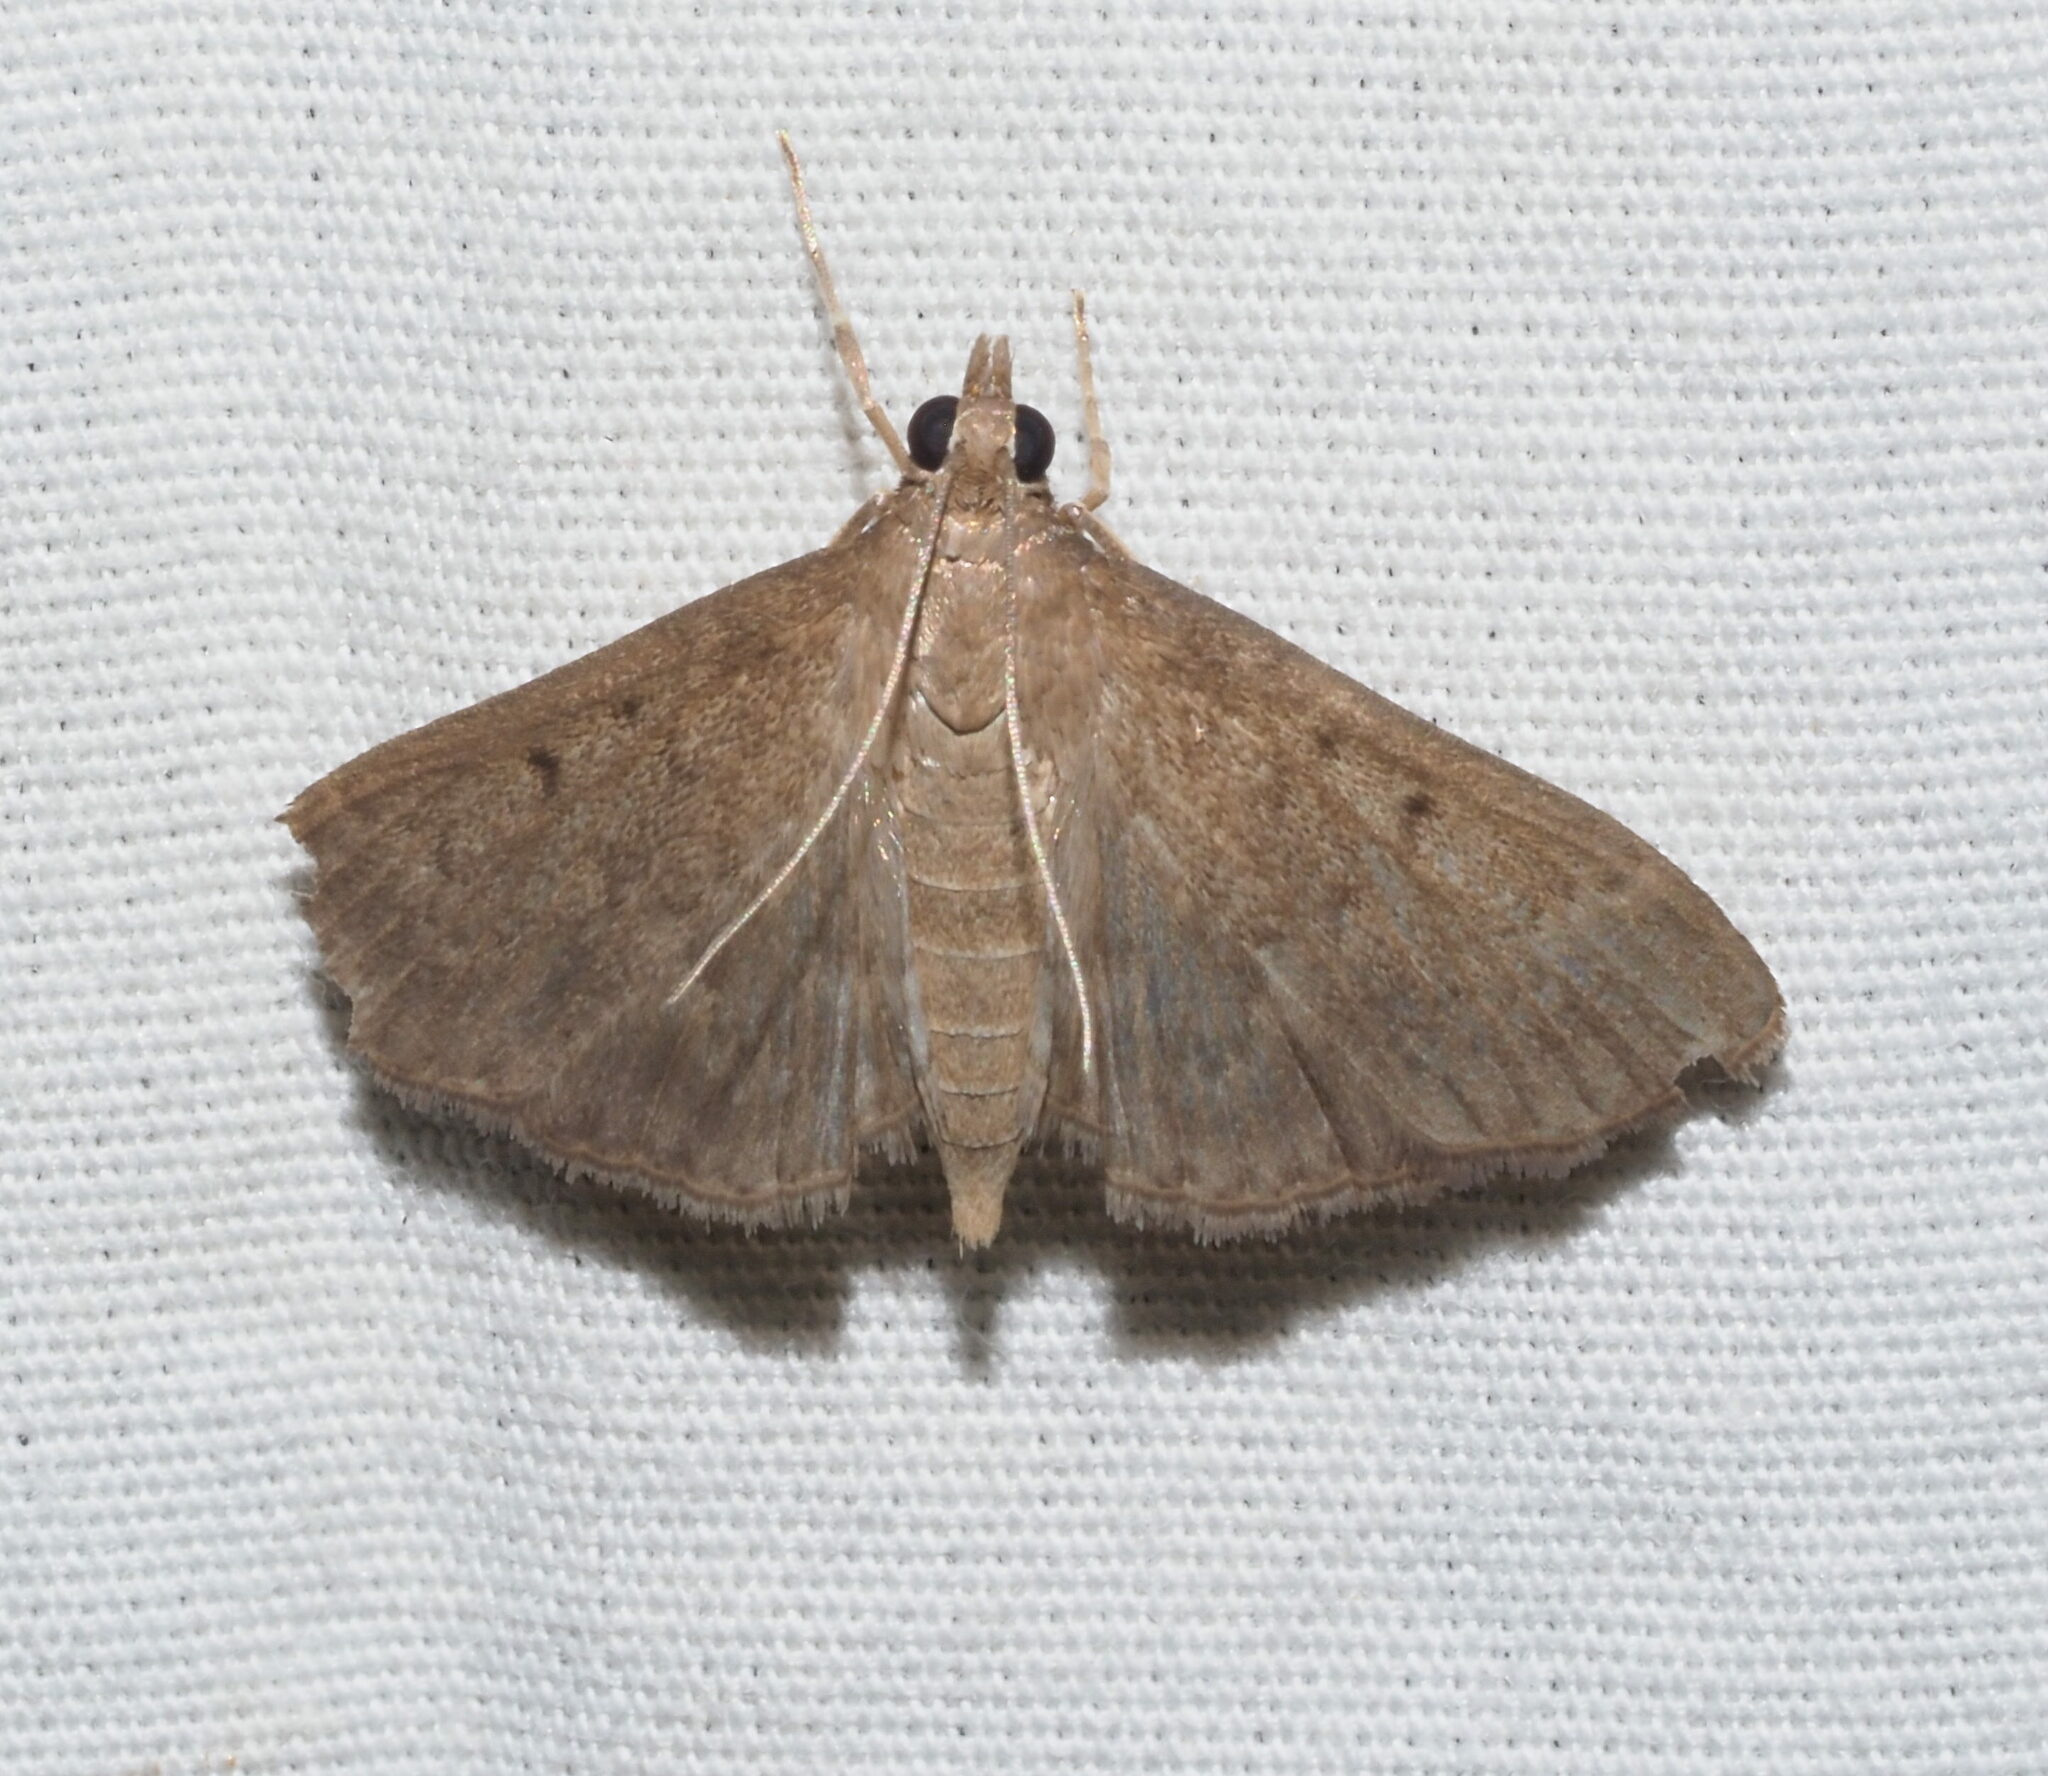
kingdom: Animalia
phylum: Arthropoda
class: Insecta
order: Lepidoptera
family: Crambidae
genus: Herpetogramma
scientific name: Herpetogramma licarsisalis
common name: Grass webworm
